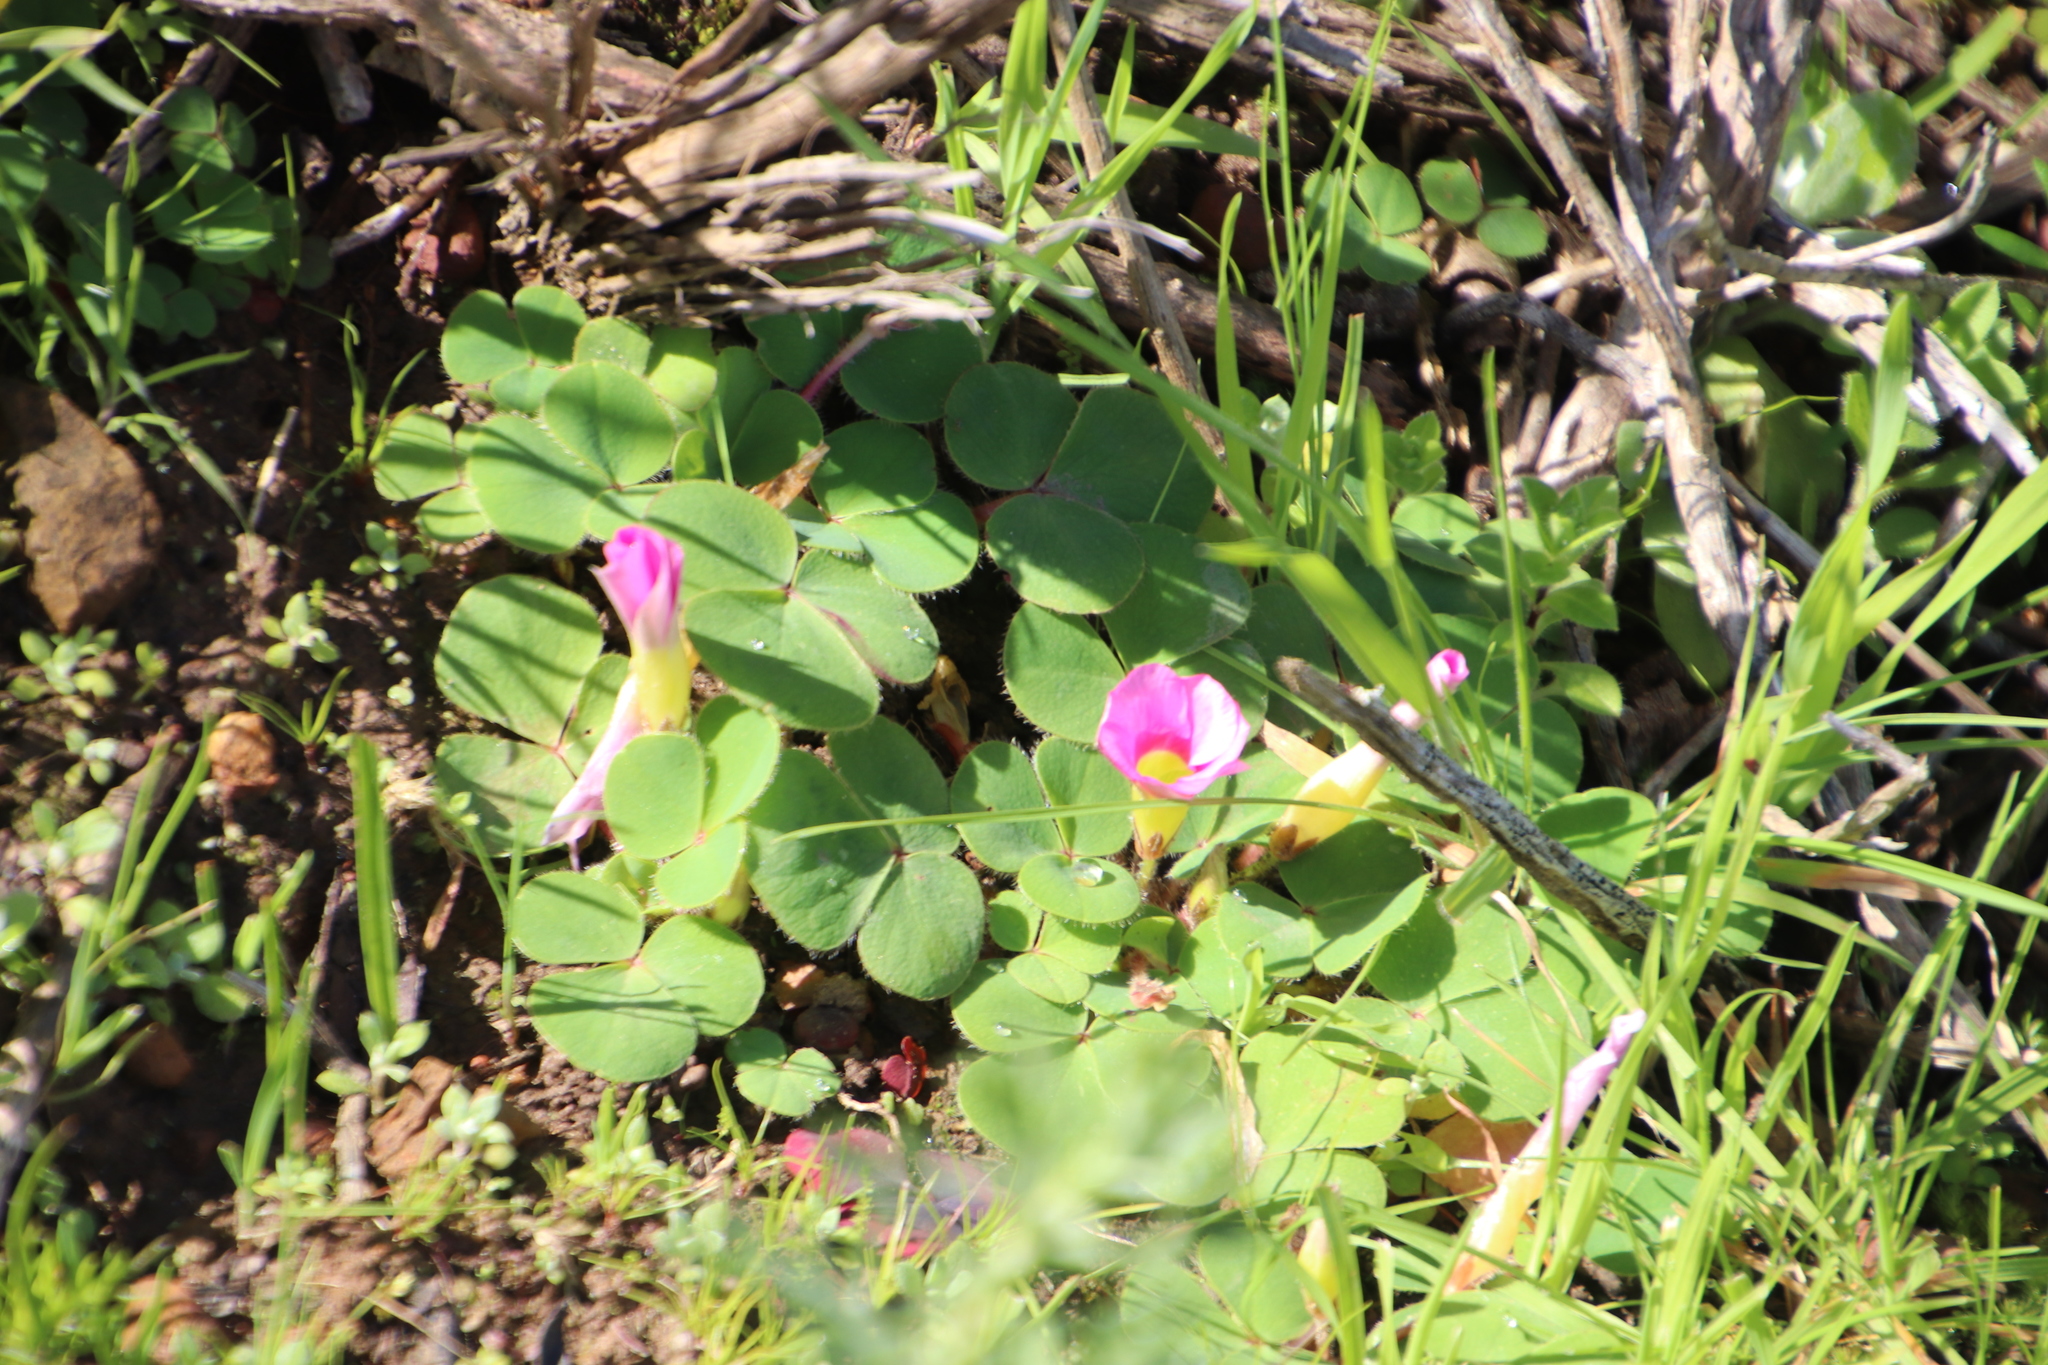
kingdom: Plantae
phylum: Tracheophyta
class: Magnoliopsida
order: Oxalidales
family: Oxalidaceae
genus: Oxalis
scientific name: Oxalis purpurea
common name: Purple woodsorrel
